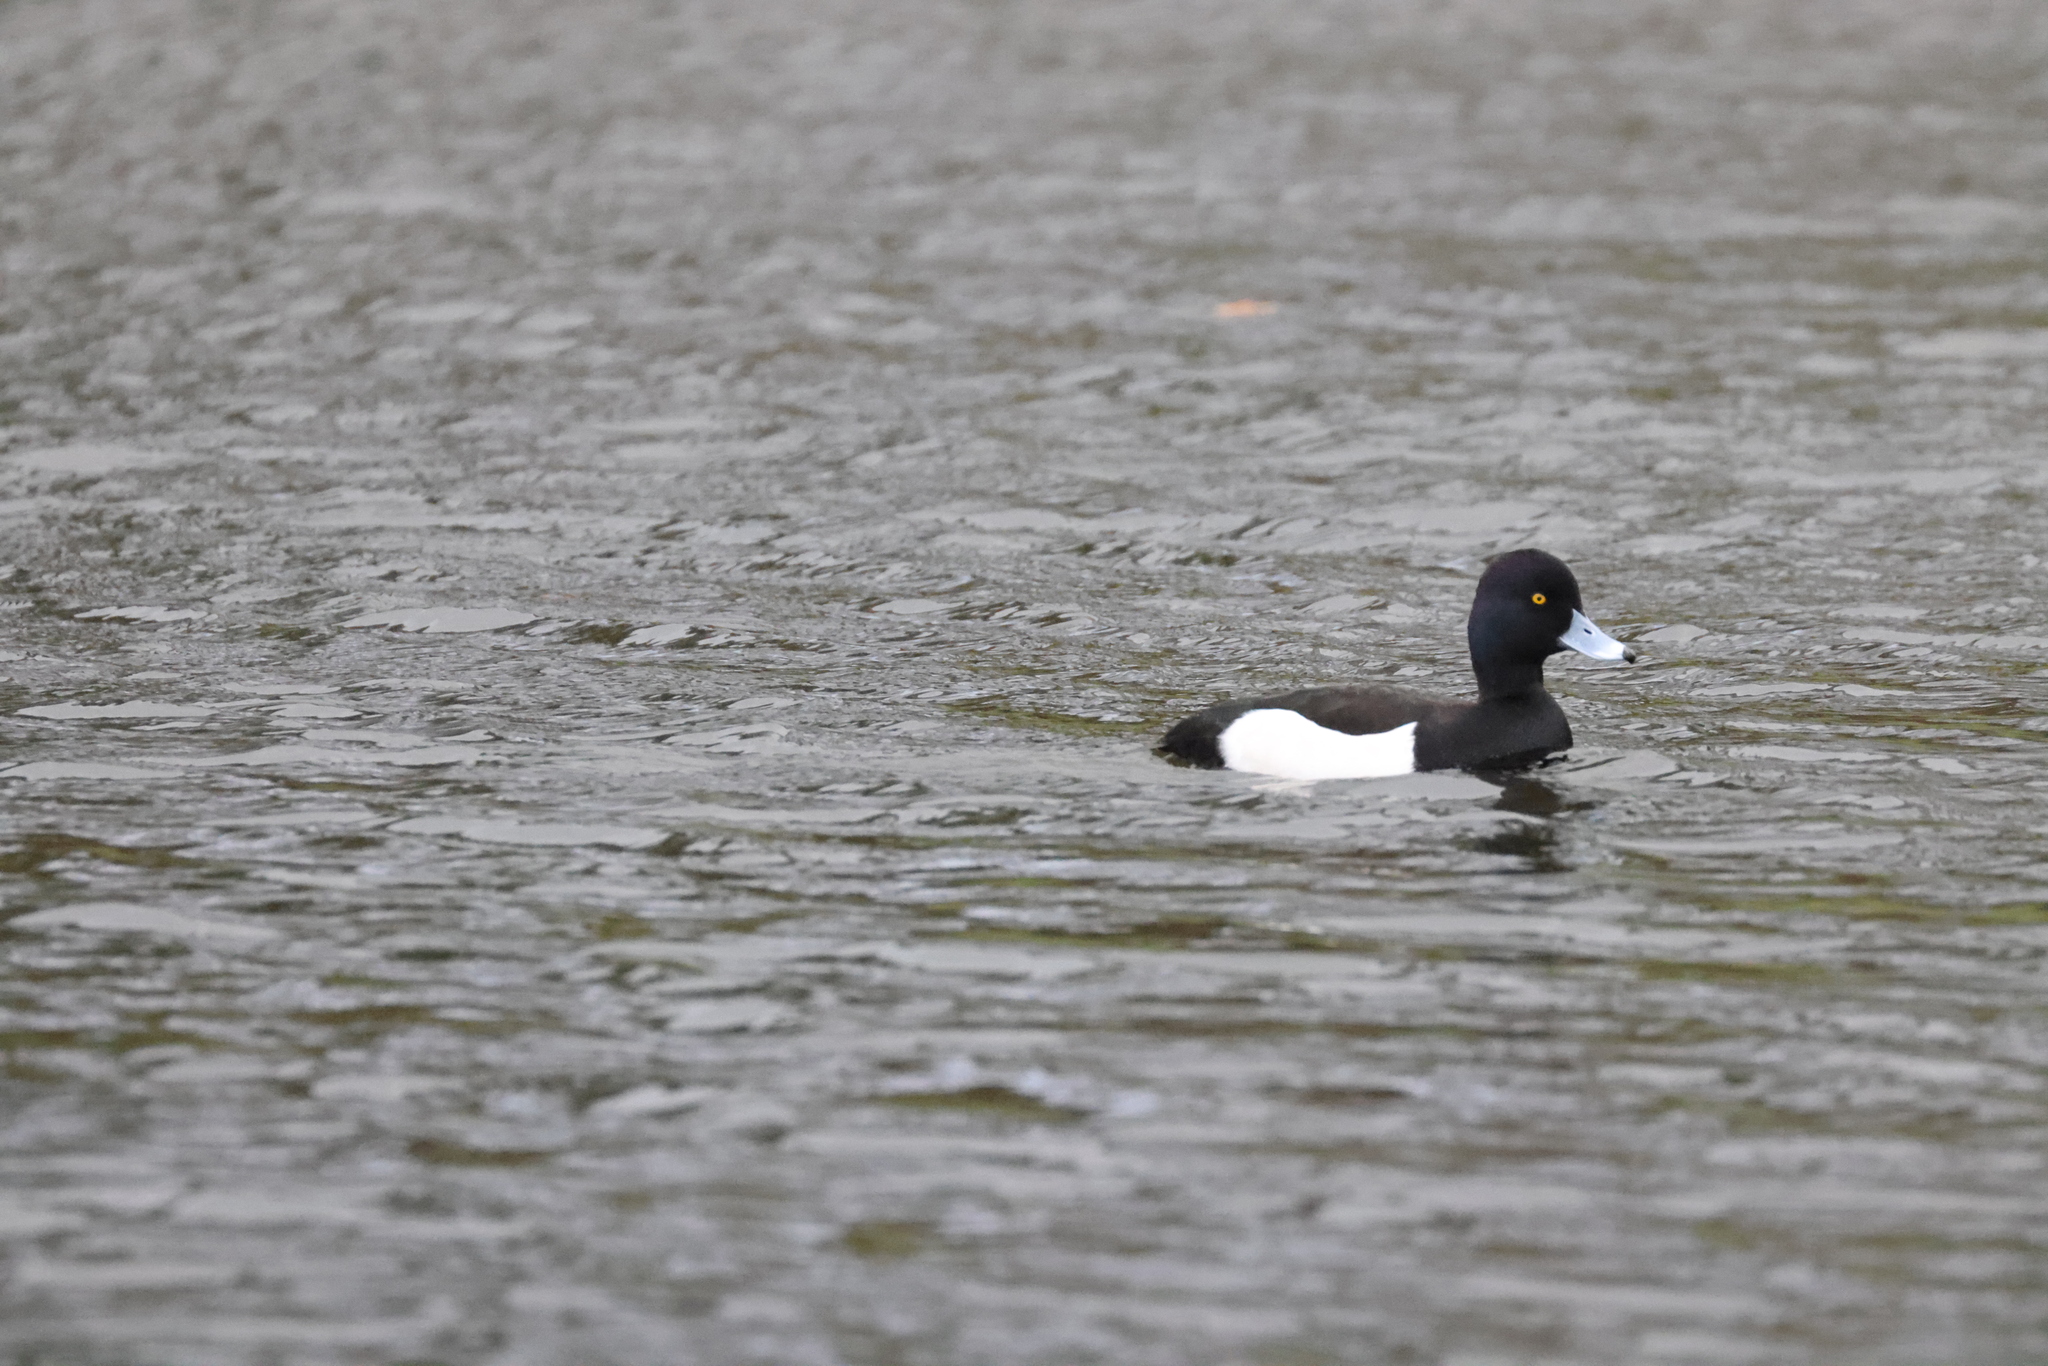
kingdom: Animalia
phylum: Chordata
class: Aves
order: Anseriformes
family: Anatidae
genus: Aythya
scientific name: Aythya fuligula
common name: Tufted duck
